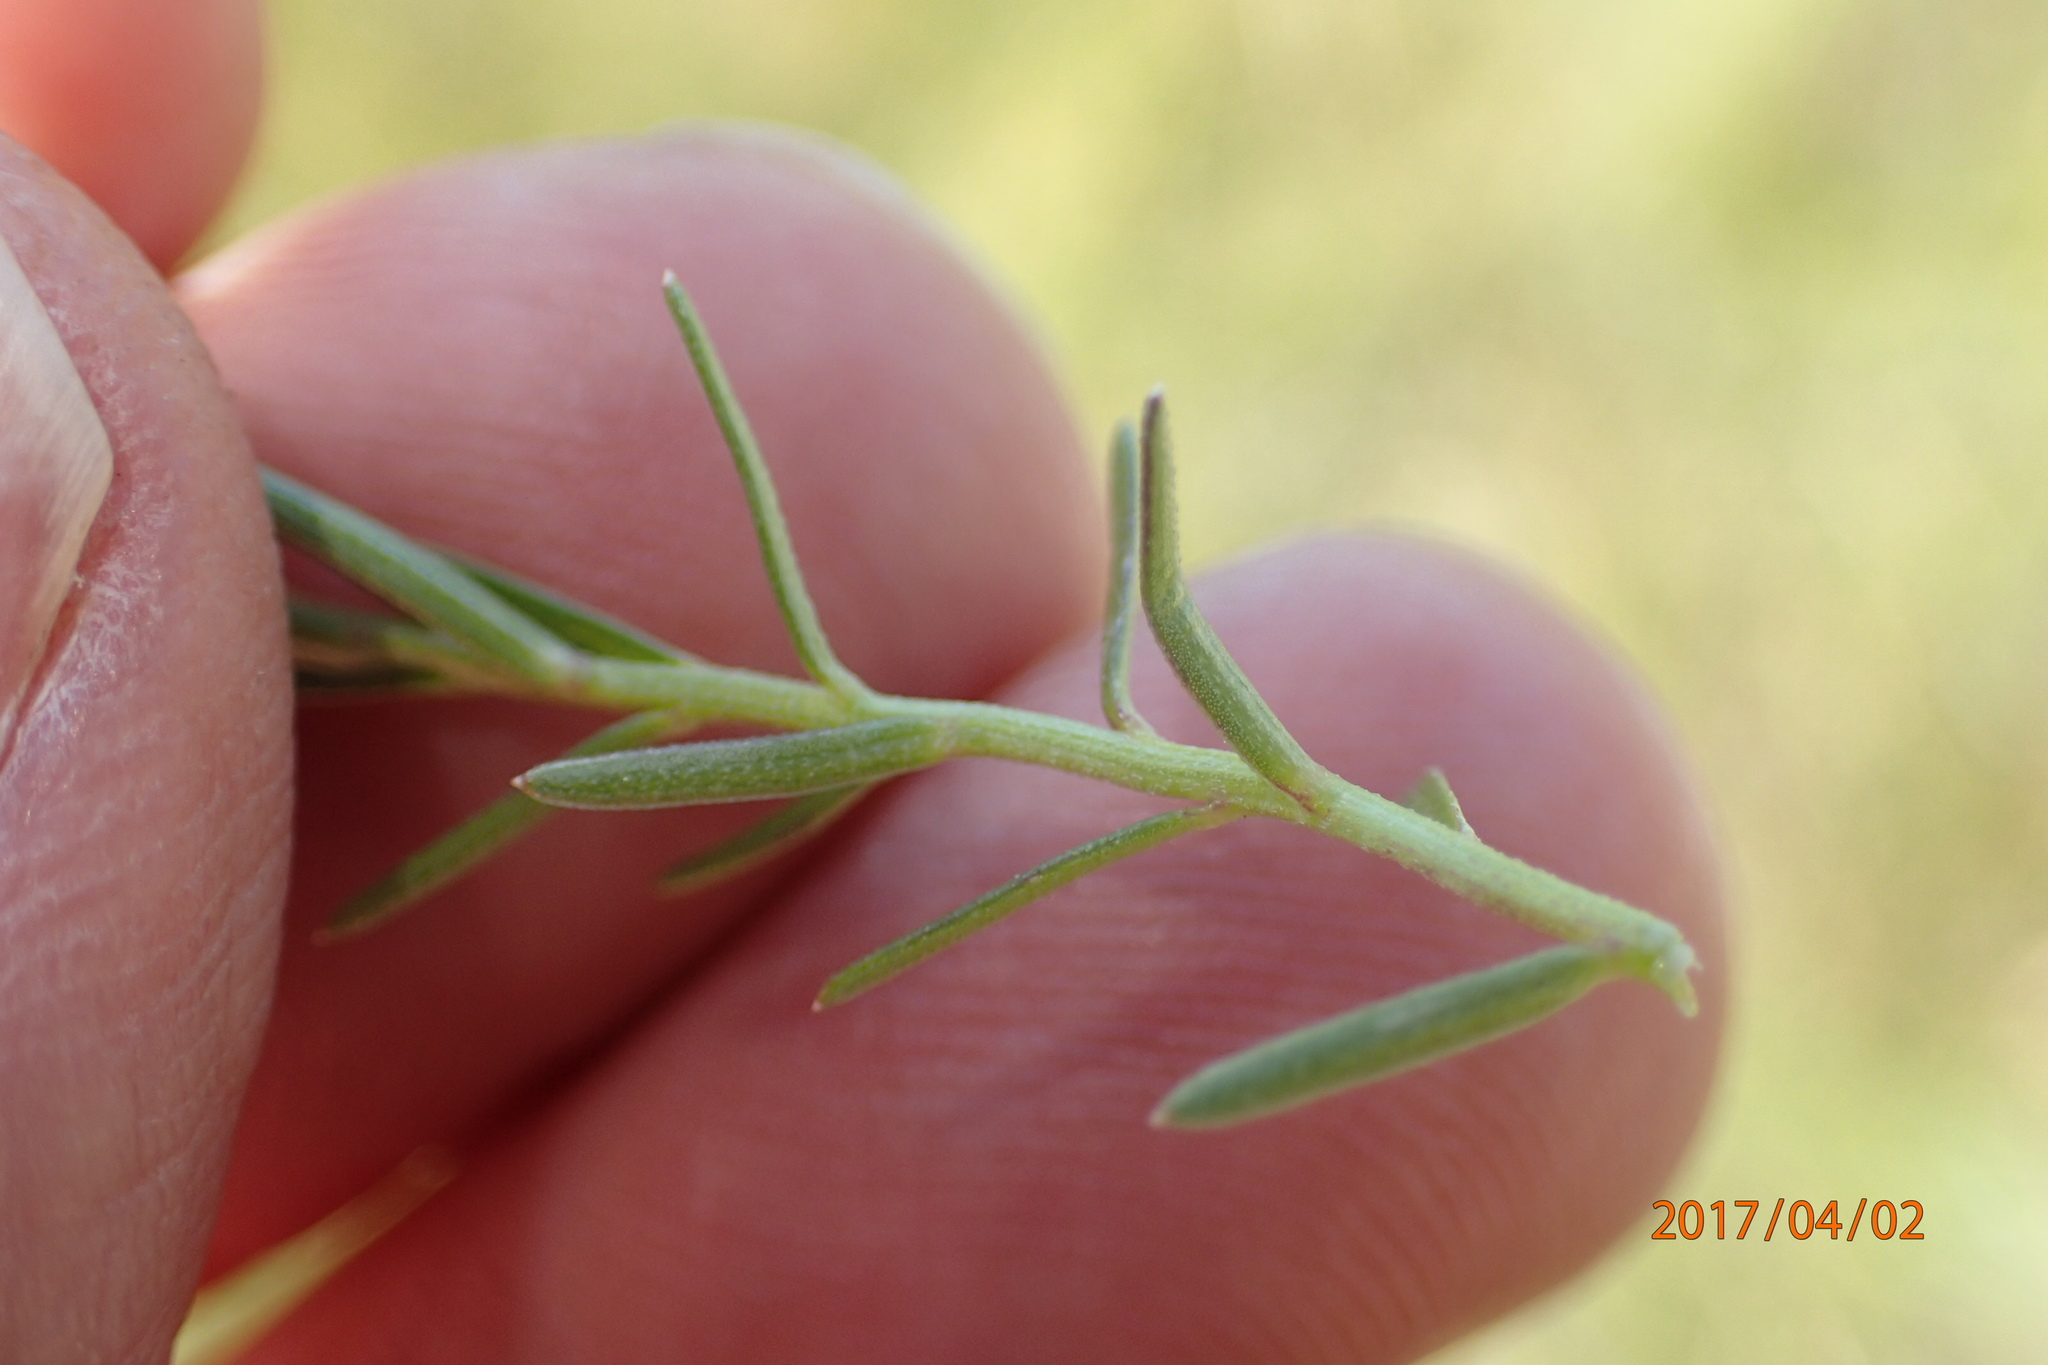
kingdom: Plantae
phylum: Tracheophyta
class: Magnoliopsida
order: Asterales
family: Campanulaceae
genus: Monopsis
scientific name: Monopsis decipiens
